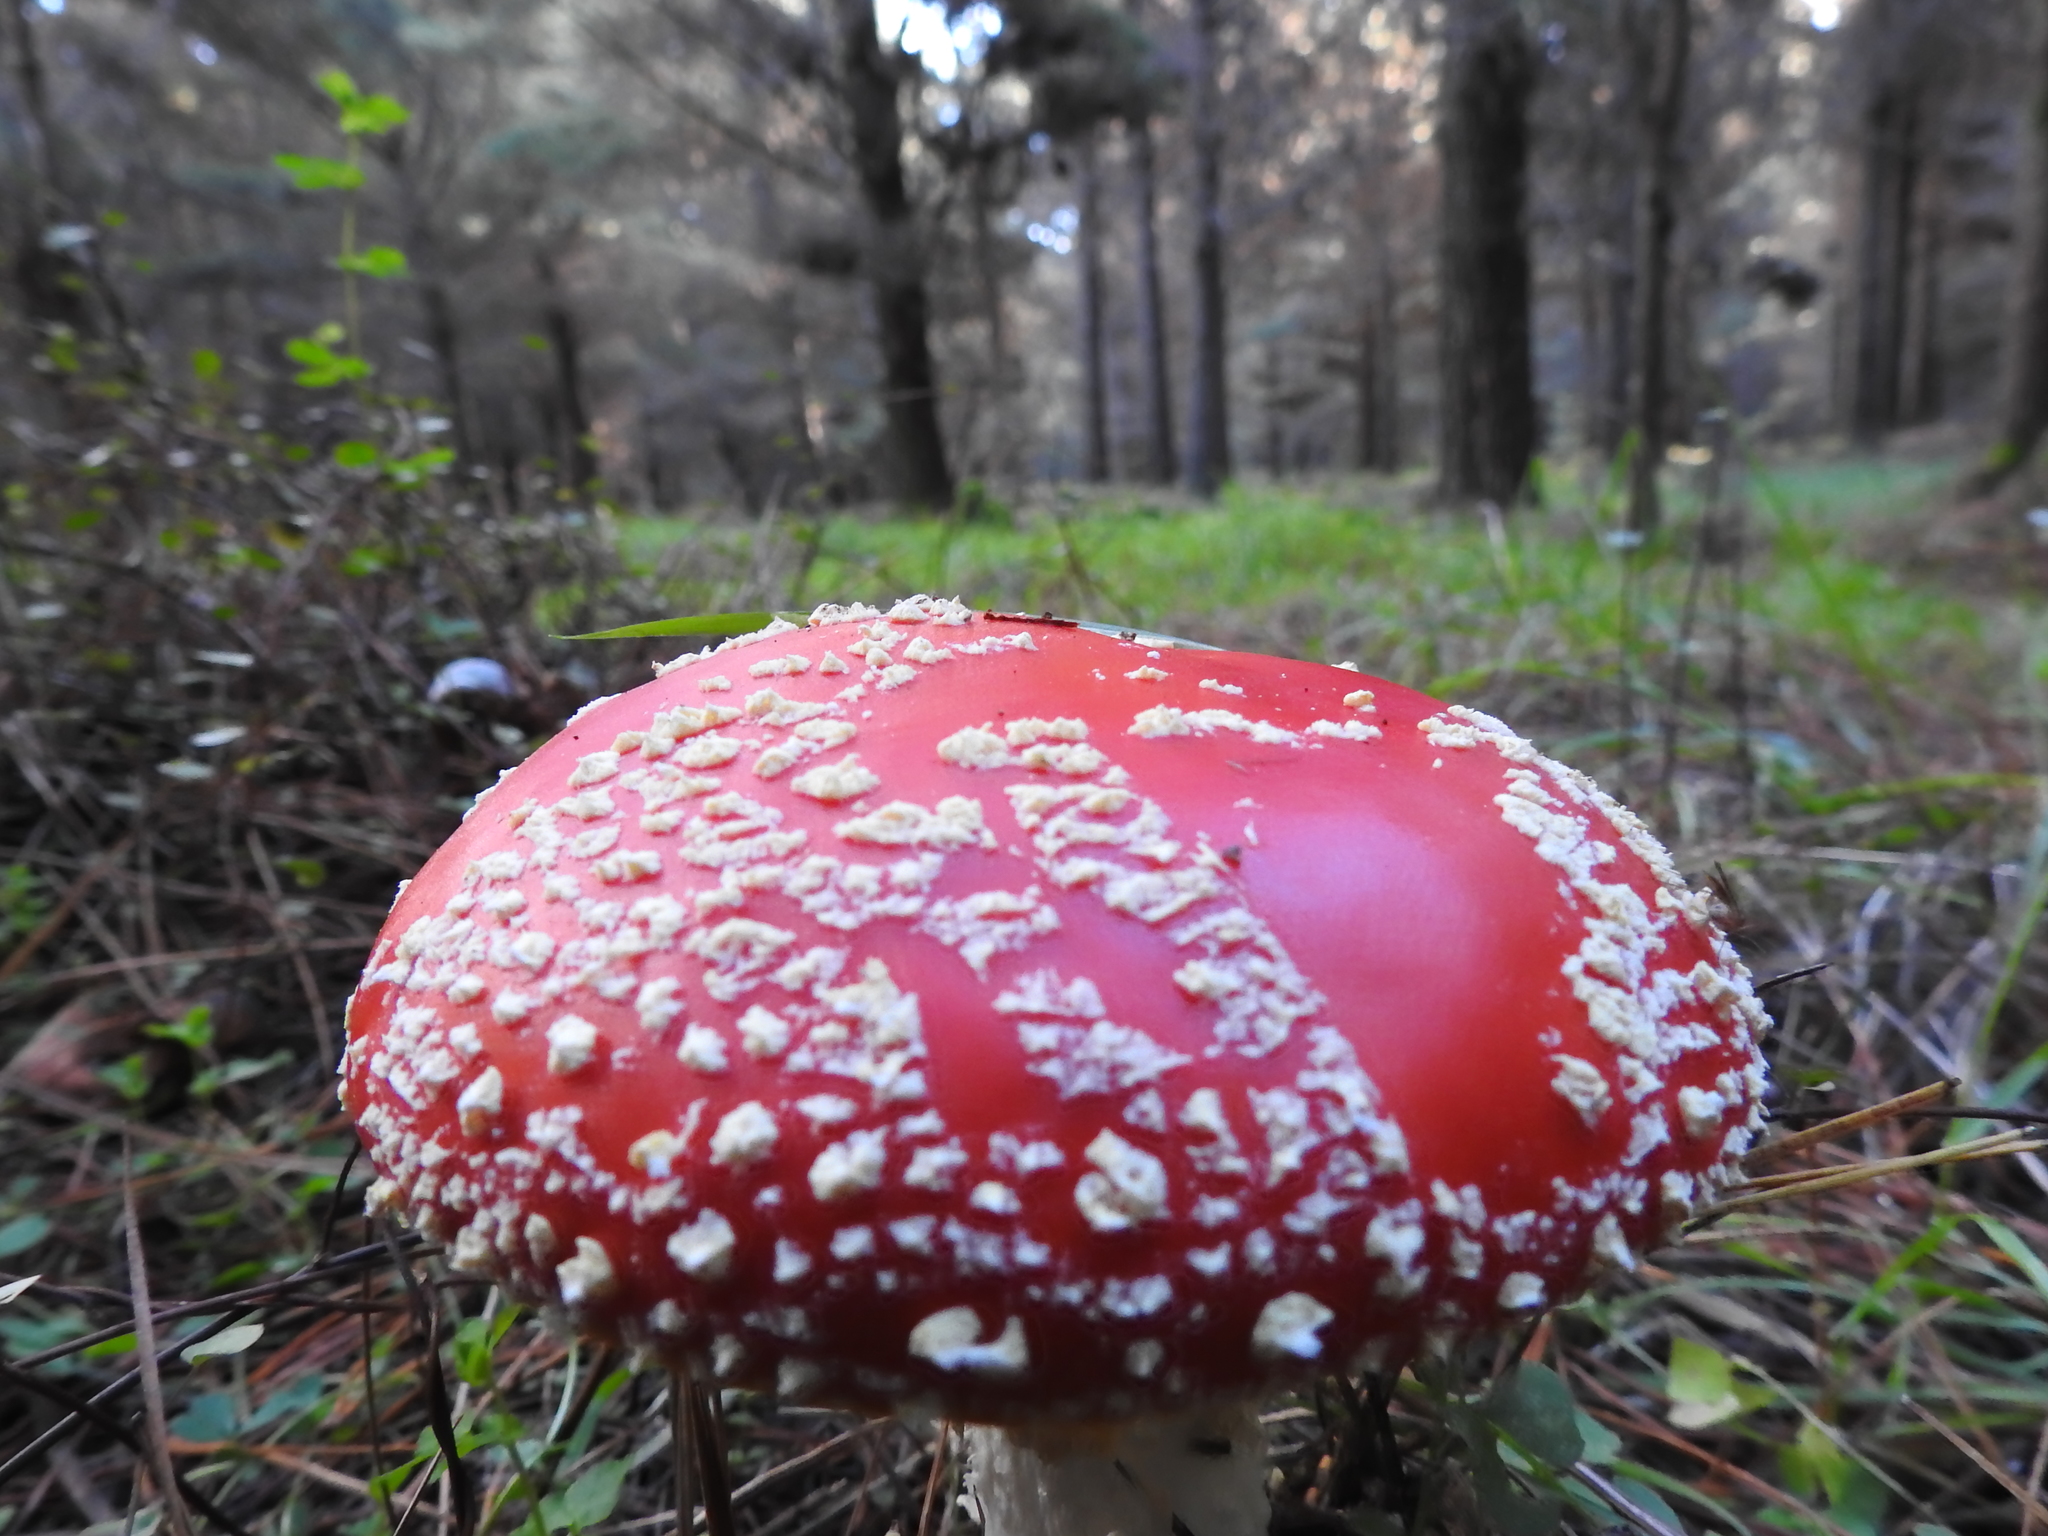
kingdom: Fungi
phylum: Basidiomycota
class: Agaricomycetes
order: Agaricales
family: Amanitaceae
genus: Amanita
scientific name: Amanita muscaria
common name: Fly agaric
